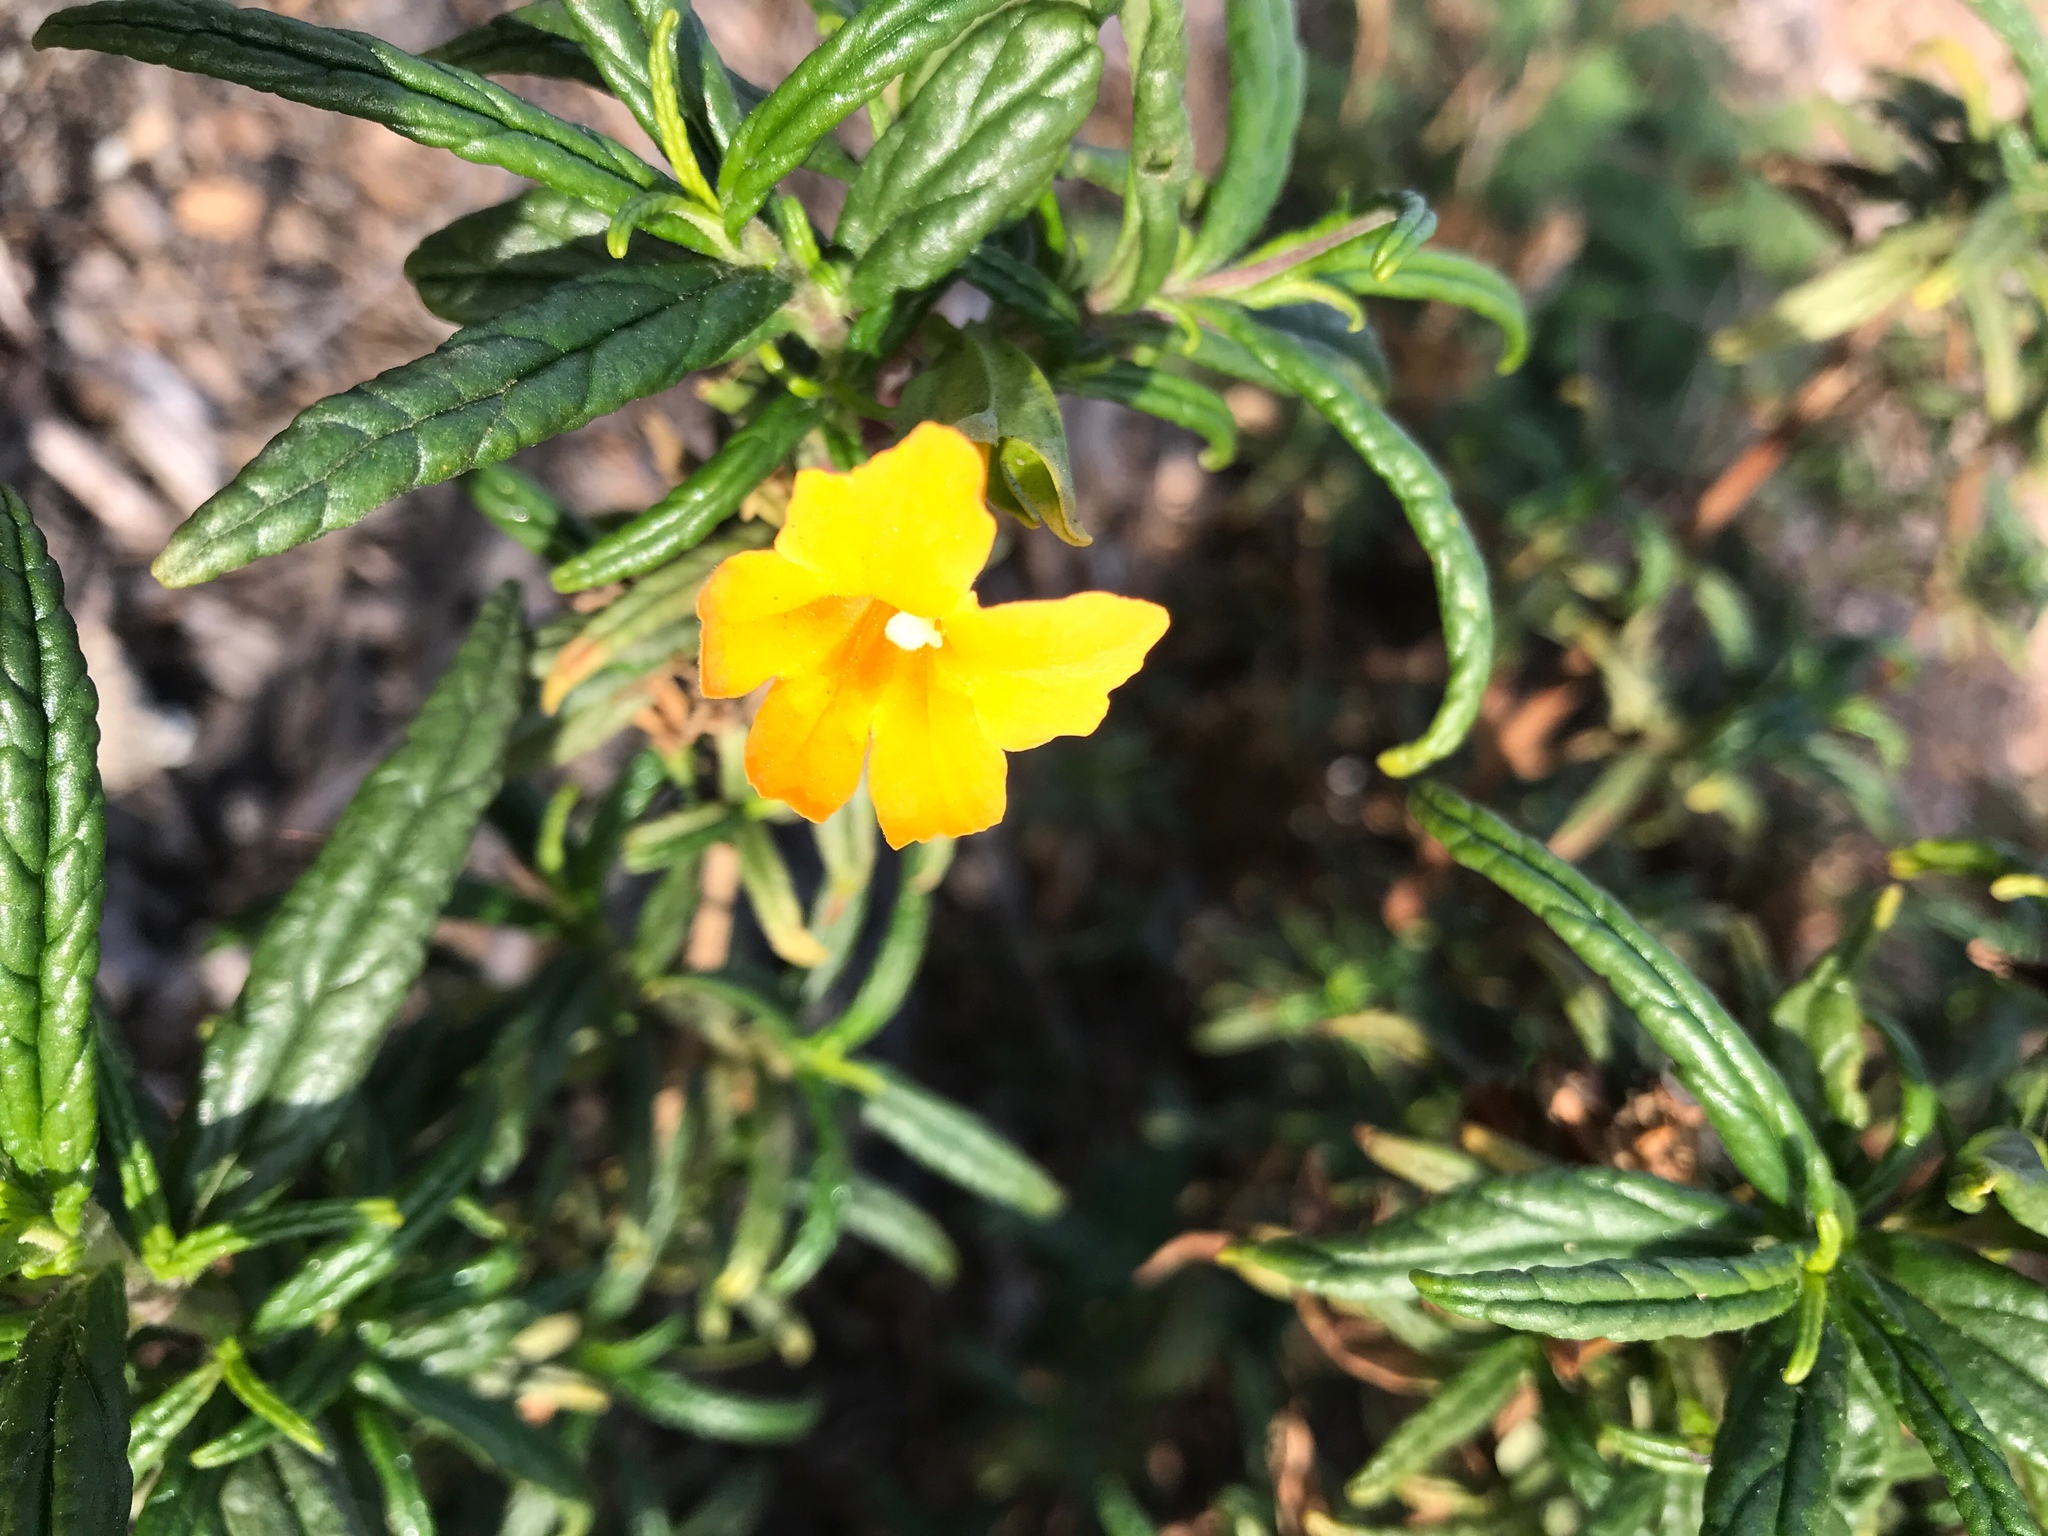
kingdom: Plantae
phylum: Tracheophyta
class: Magnoliopsida
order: Lamiales
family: Phrymaceae
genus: Diplacus
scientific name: Diplacus aurantiacus
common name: Bush monkey-flower
